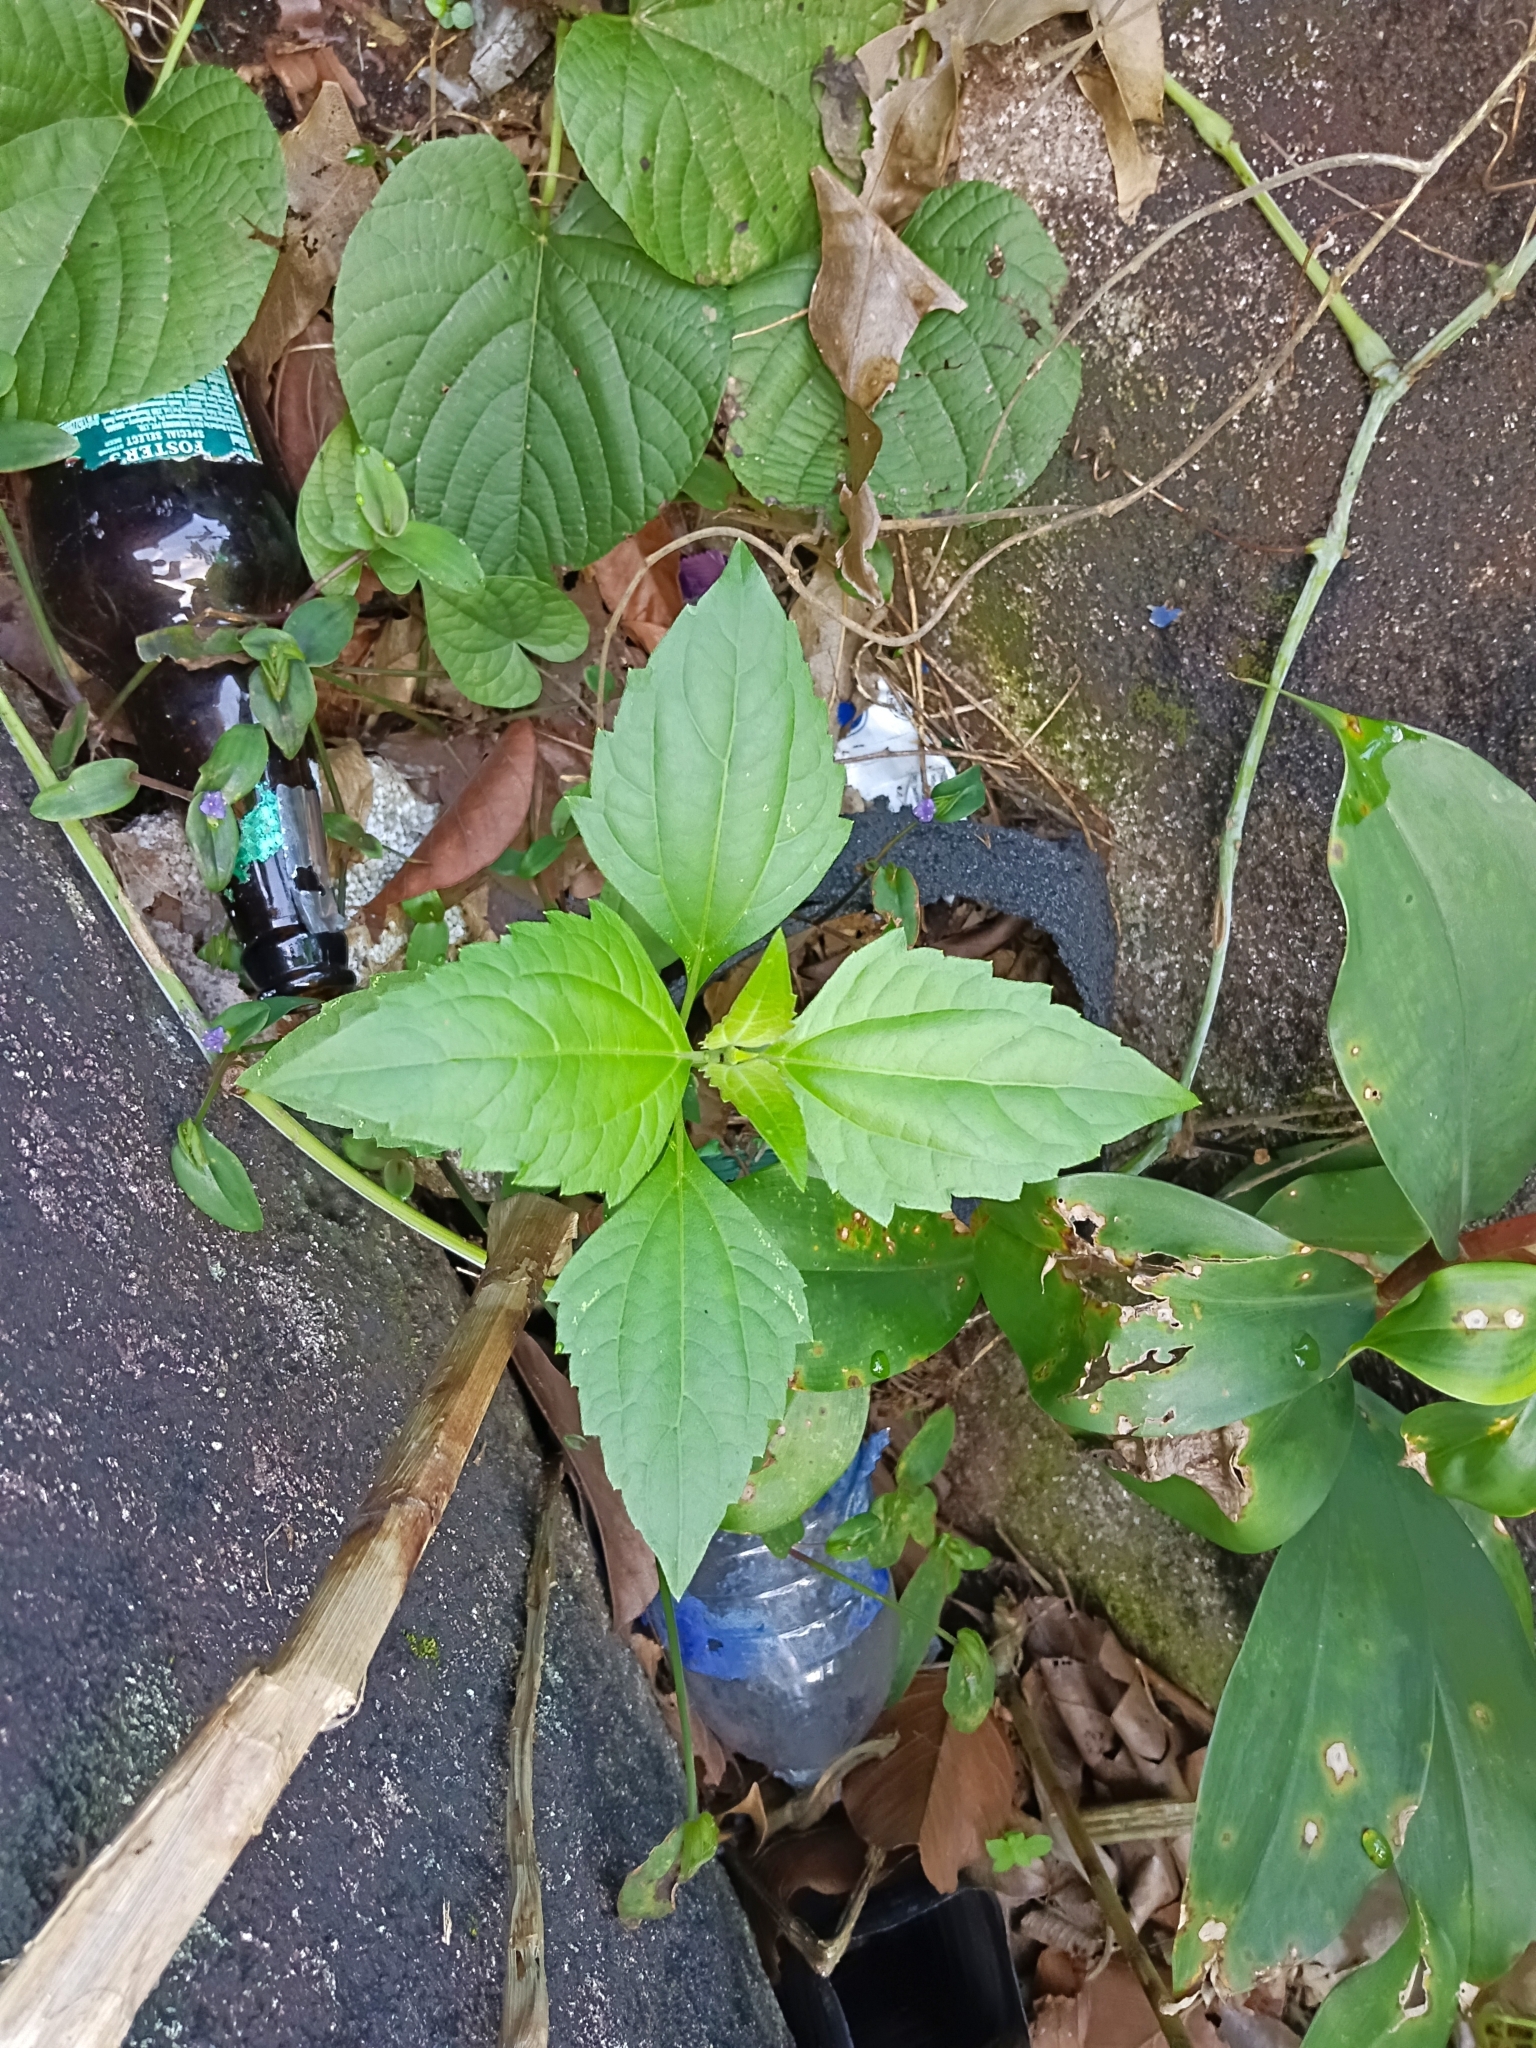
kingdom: Plantae
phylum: Tracheophyta
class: Magnoliopsida
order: Asterales
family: Asteraceae
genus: Chromolaena
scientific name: Chromolaena odorata
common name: Siamweed
